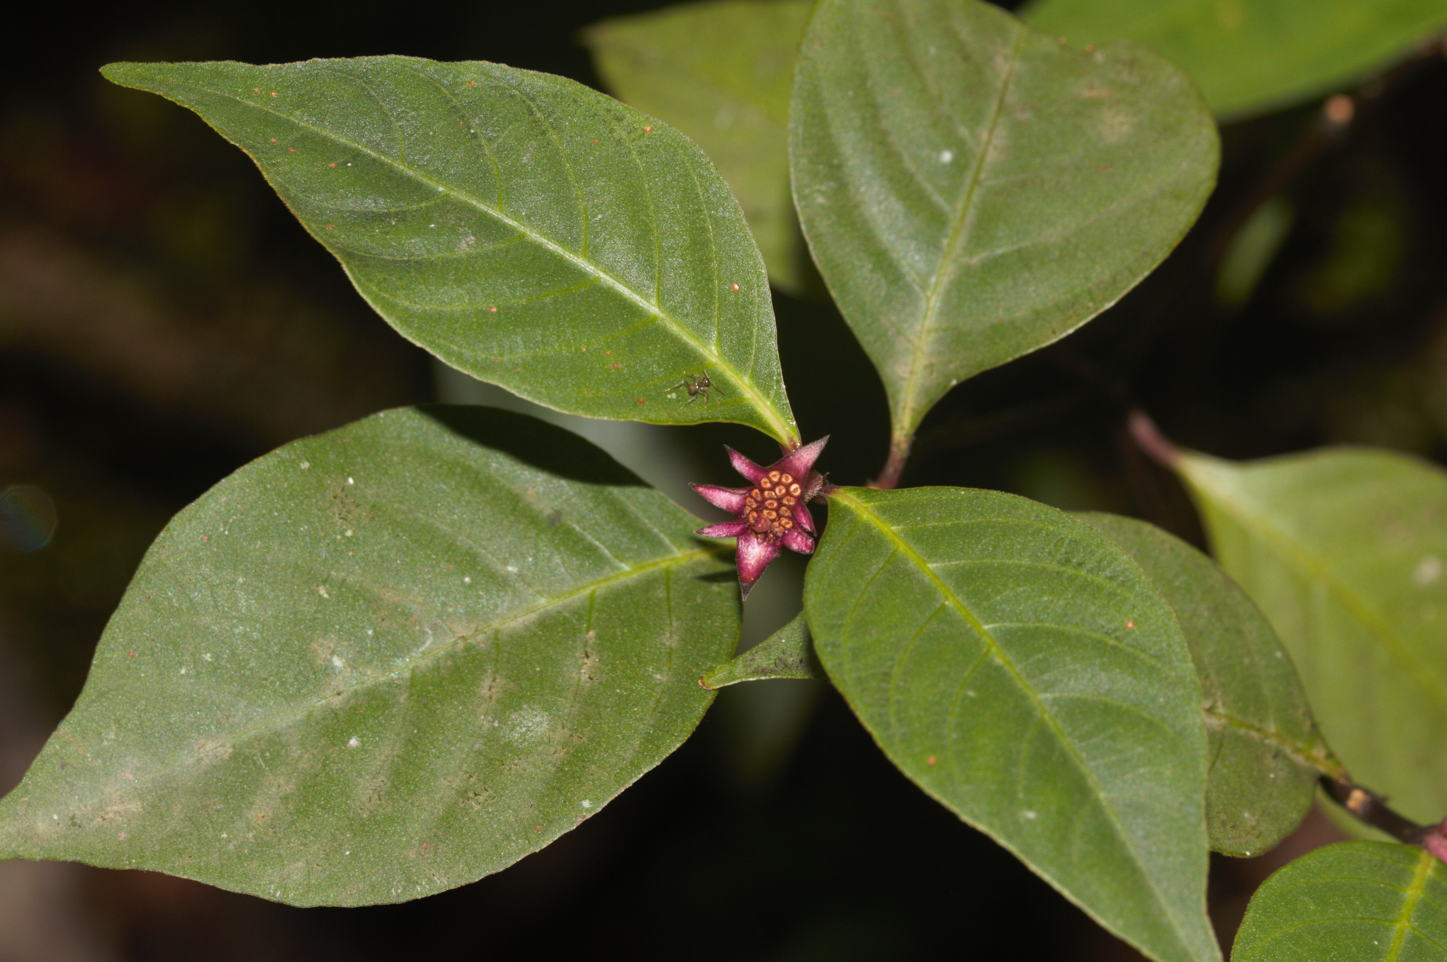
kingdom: Plantae
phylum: Tracheophyta
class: Magnoliopsida
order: Gentianales
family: Rubiaceae
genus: Palicourea
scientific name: Palicourea hoffmannseggiana
